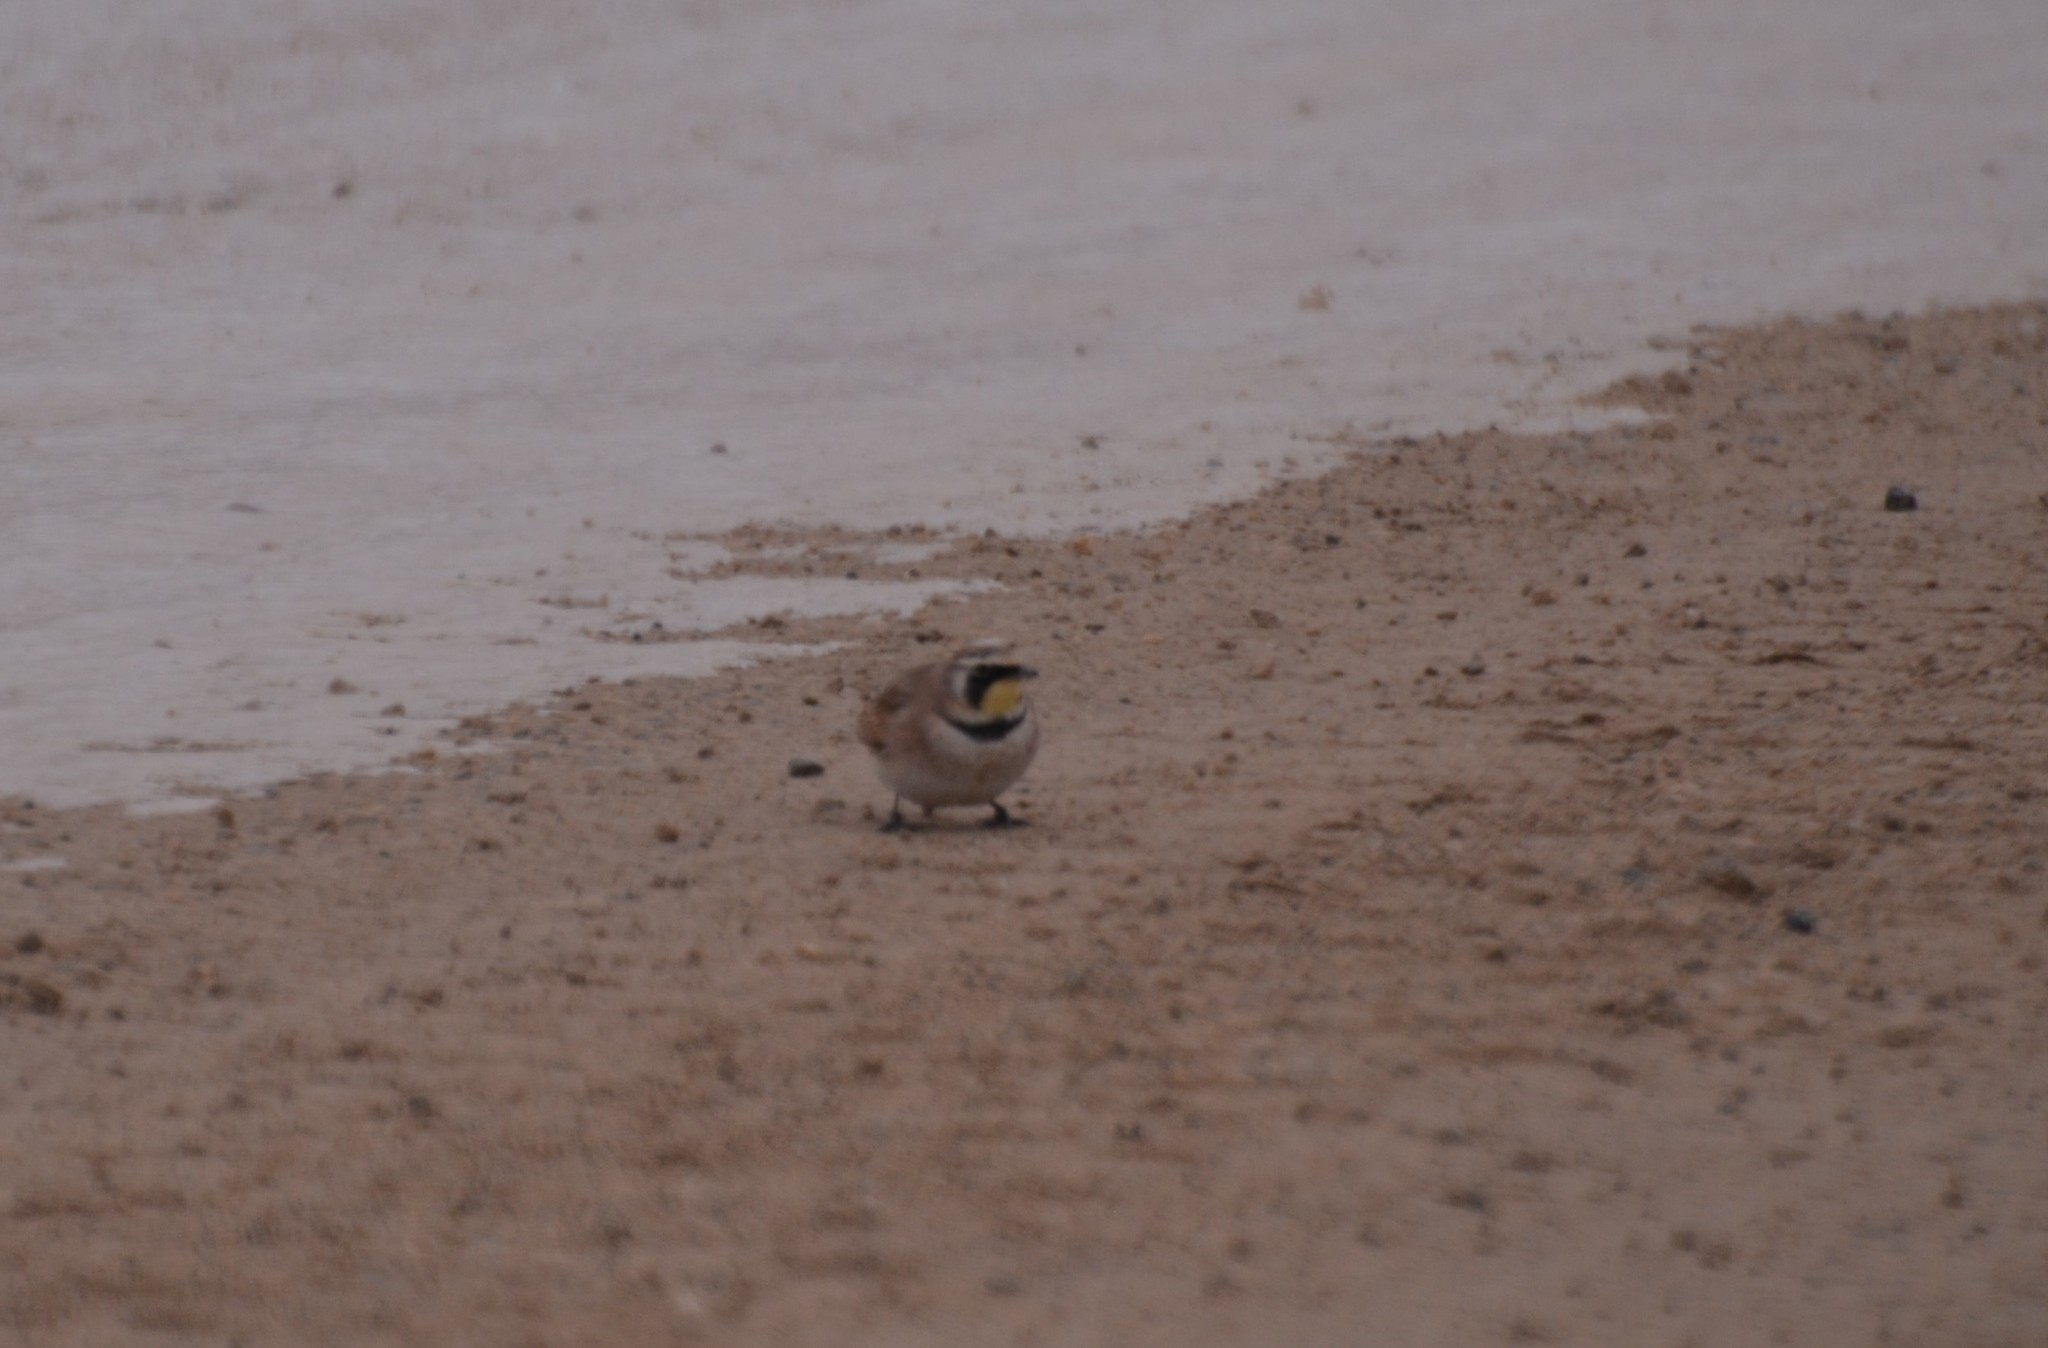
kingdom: Animalia
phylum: Chordata
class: Aves
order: Passeriformes
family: Alaudidae
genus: Eremophila
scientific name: Eremophila alpestris
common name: Horned lark
